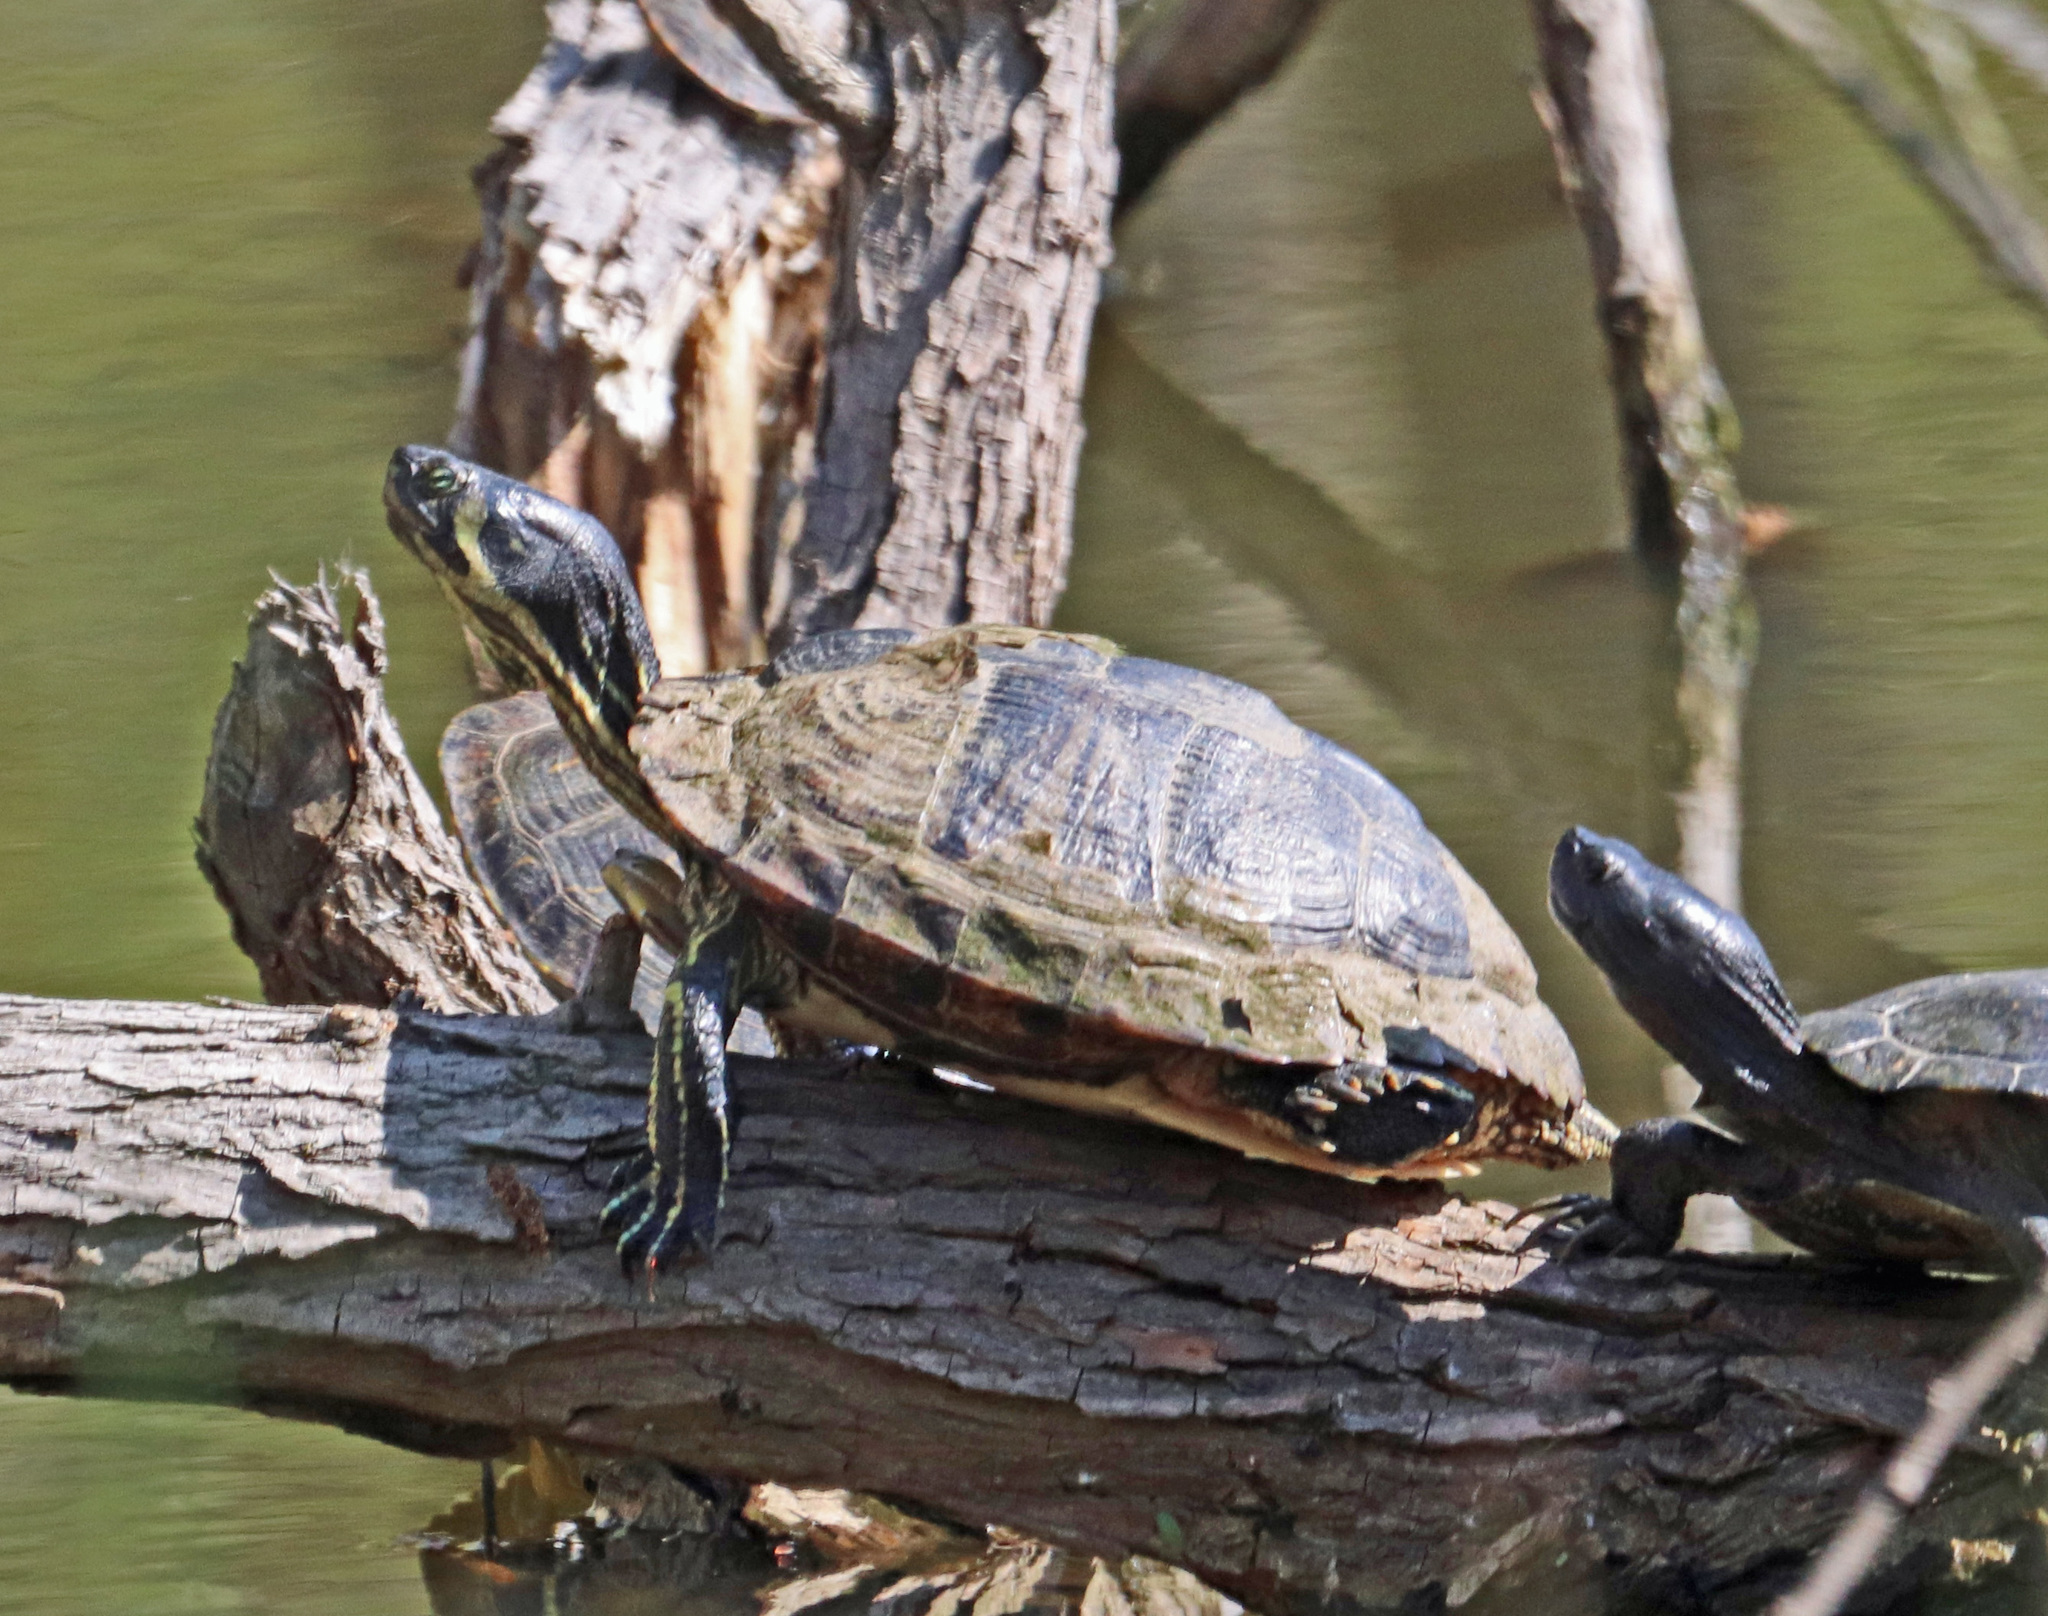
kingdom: Animalia
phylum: Chordata
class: Testudines
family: Emydidae
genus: Trachemys
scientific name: Trachemys scripta
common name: Slider
